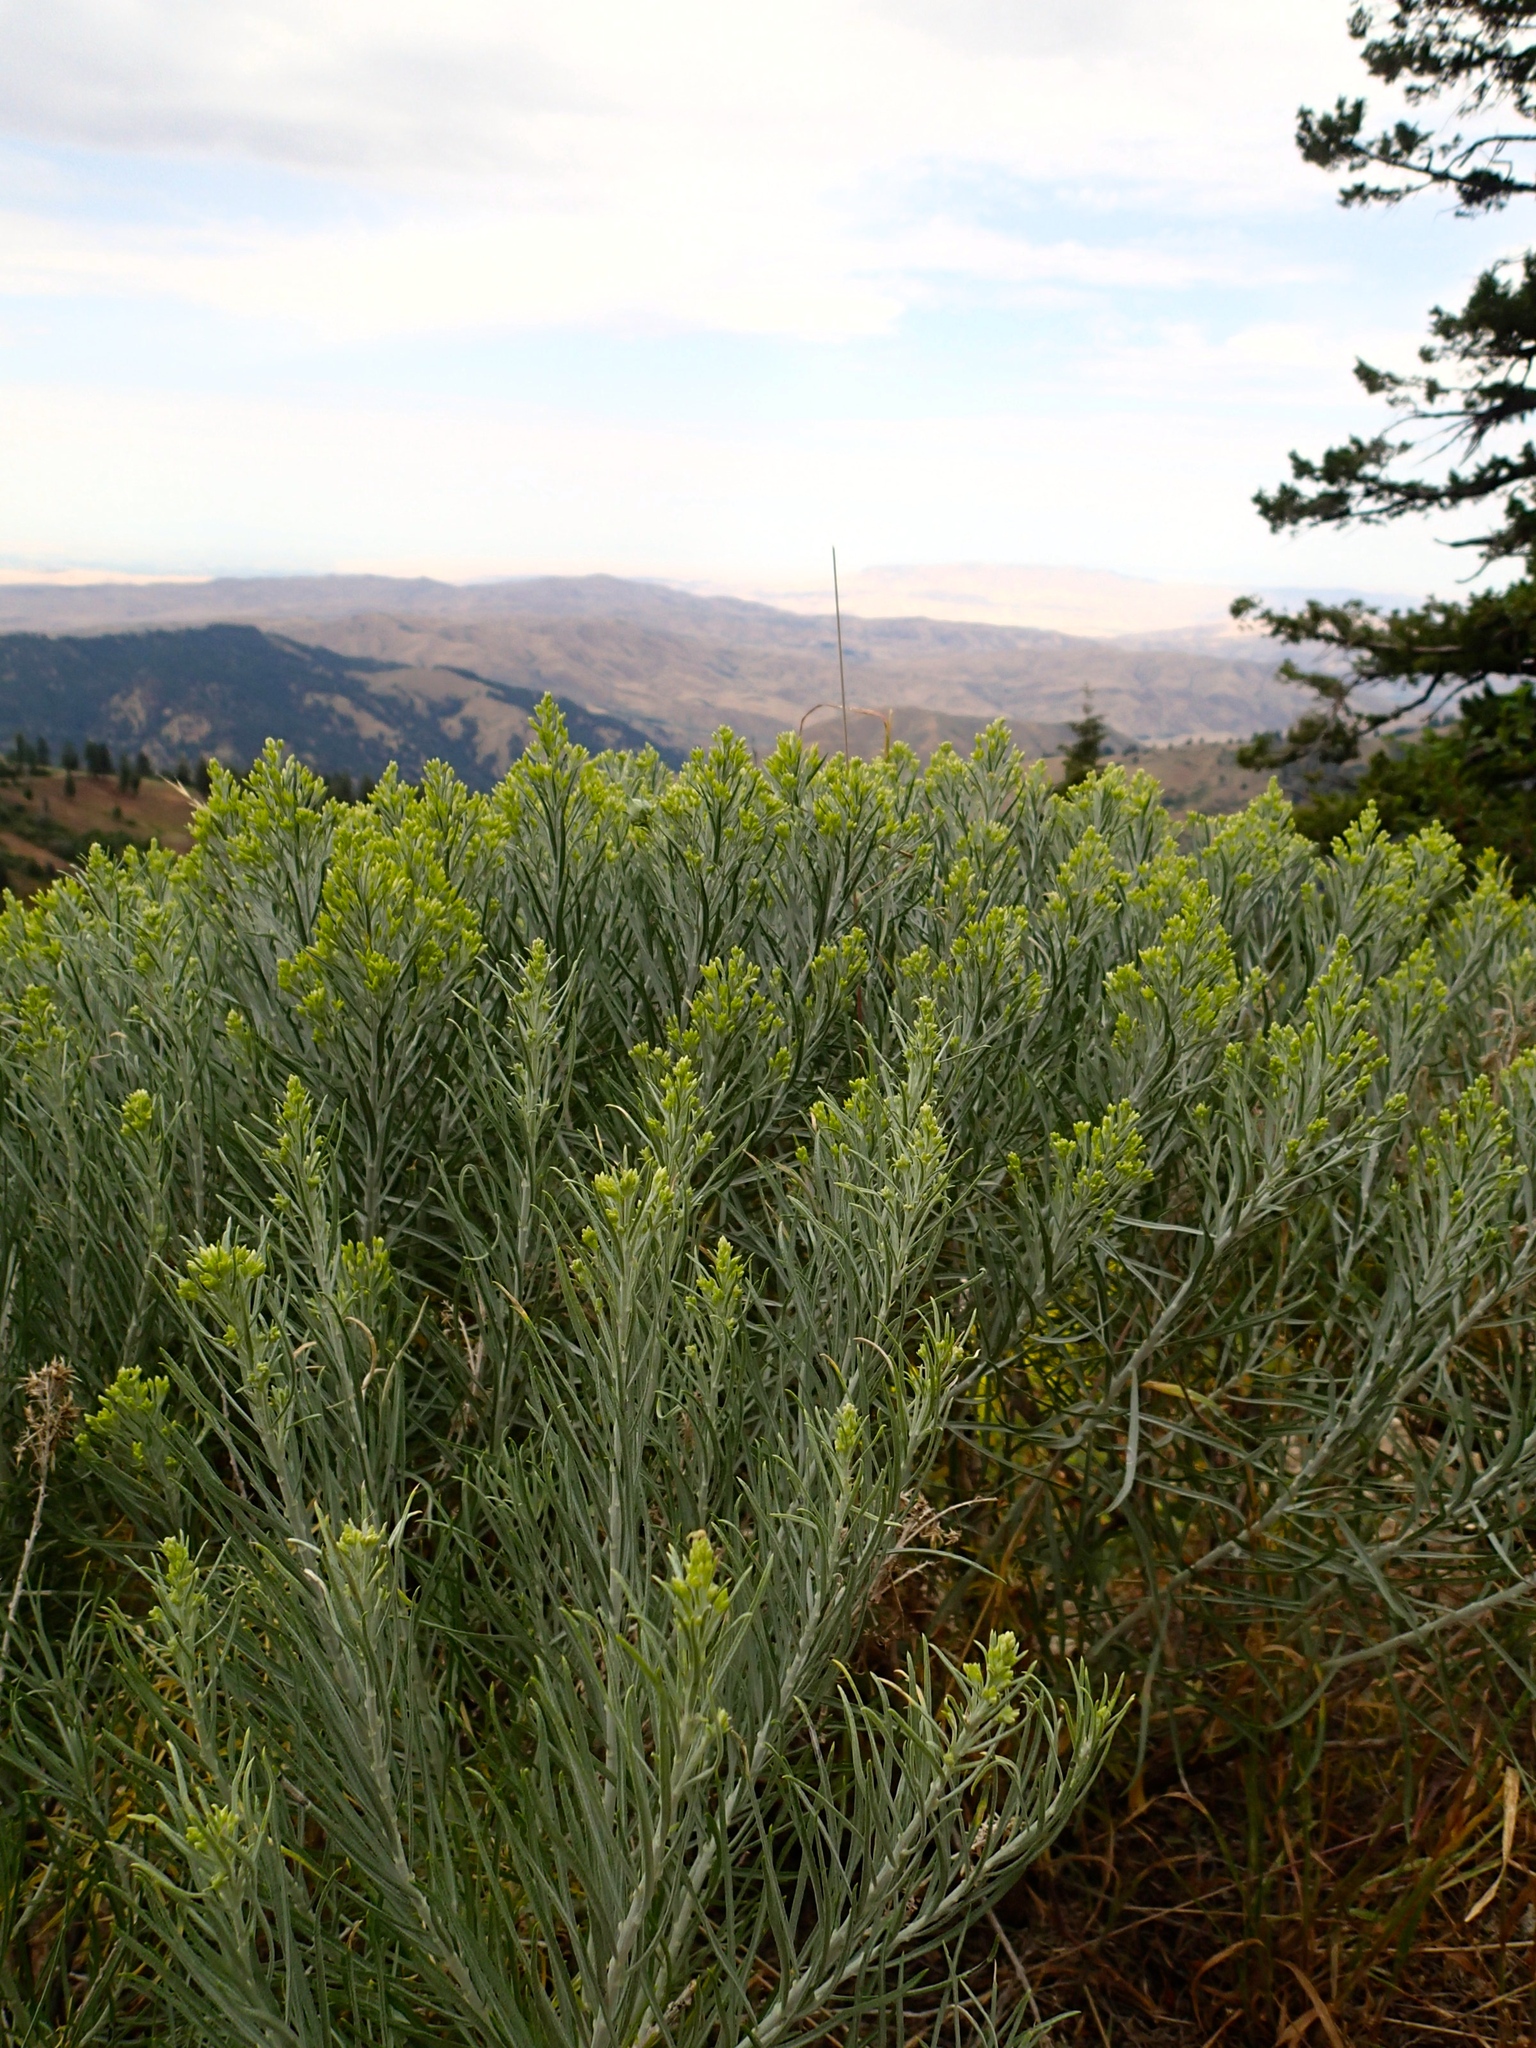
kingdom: Plantae
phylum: Tracheophyta
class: Magnoliopsida
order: Asterales
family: Asteraceae
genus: Ericameria
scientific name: Ericameria nauseosa
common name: Rubber rabbitbrush
